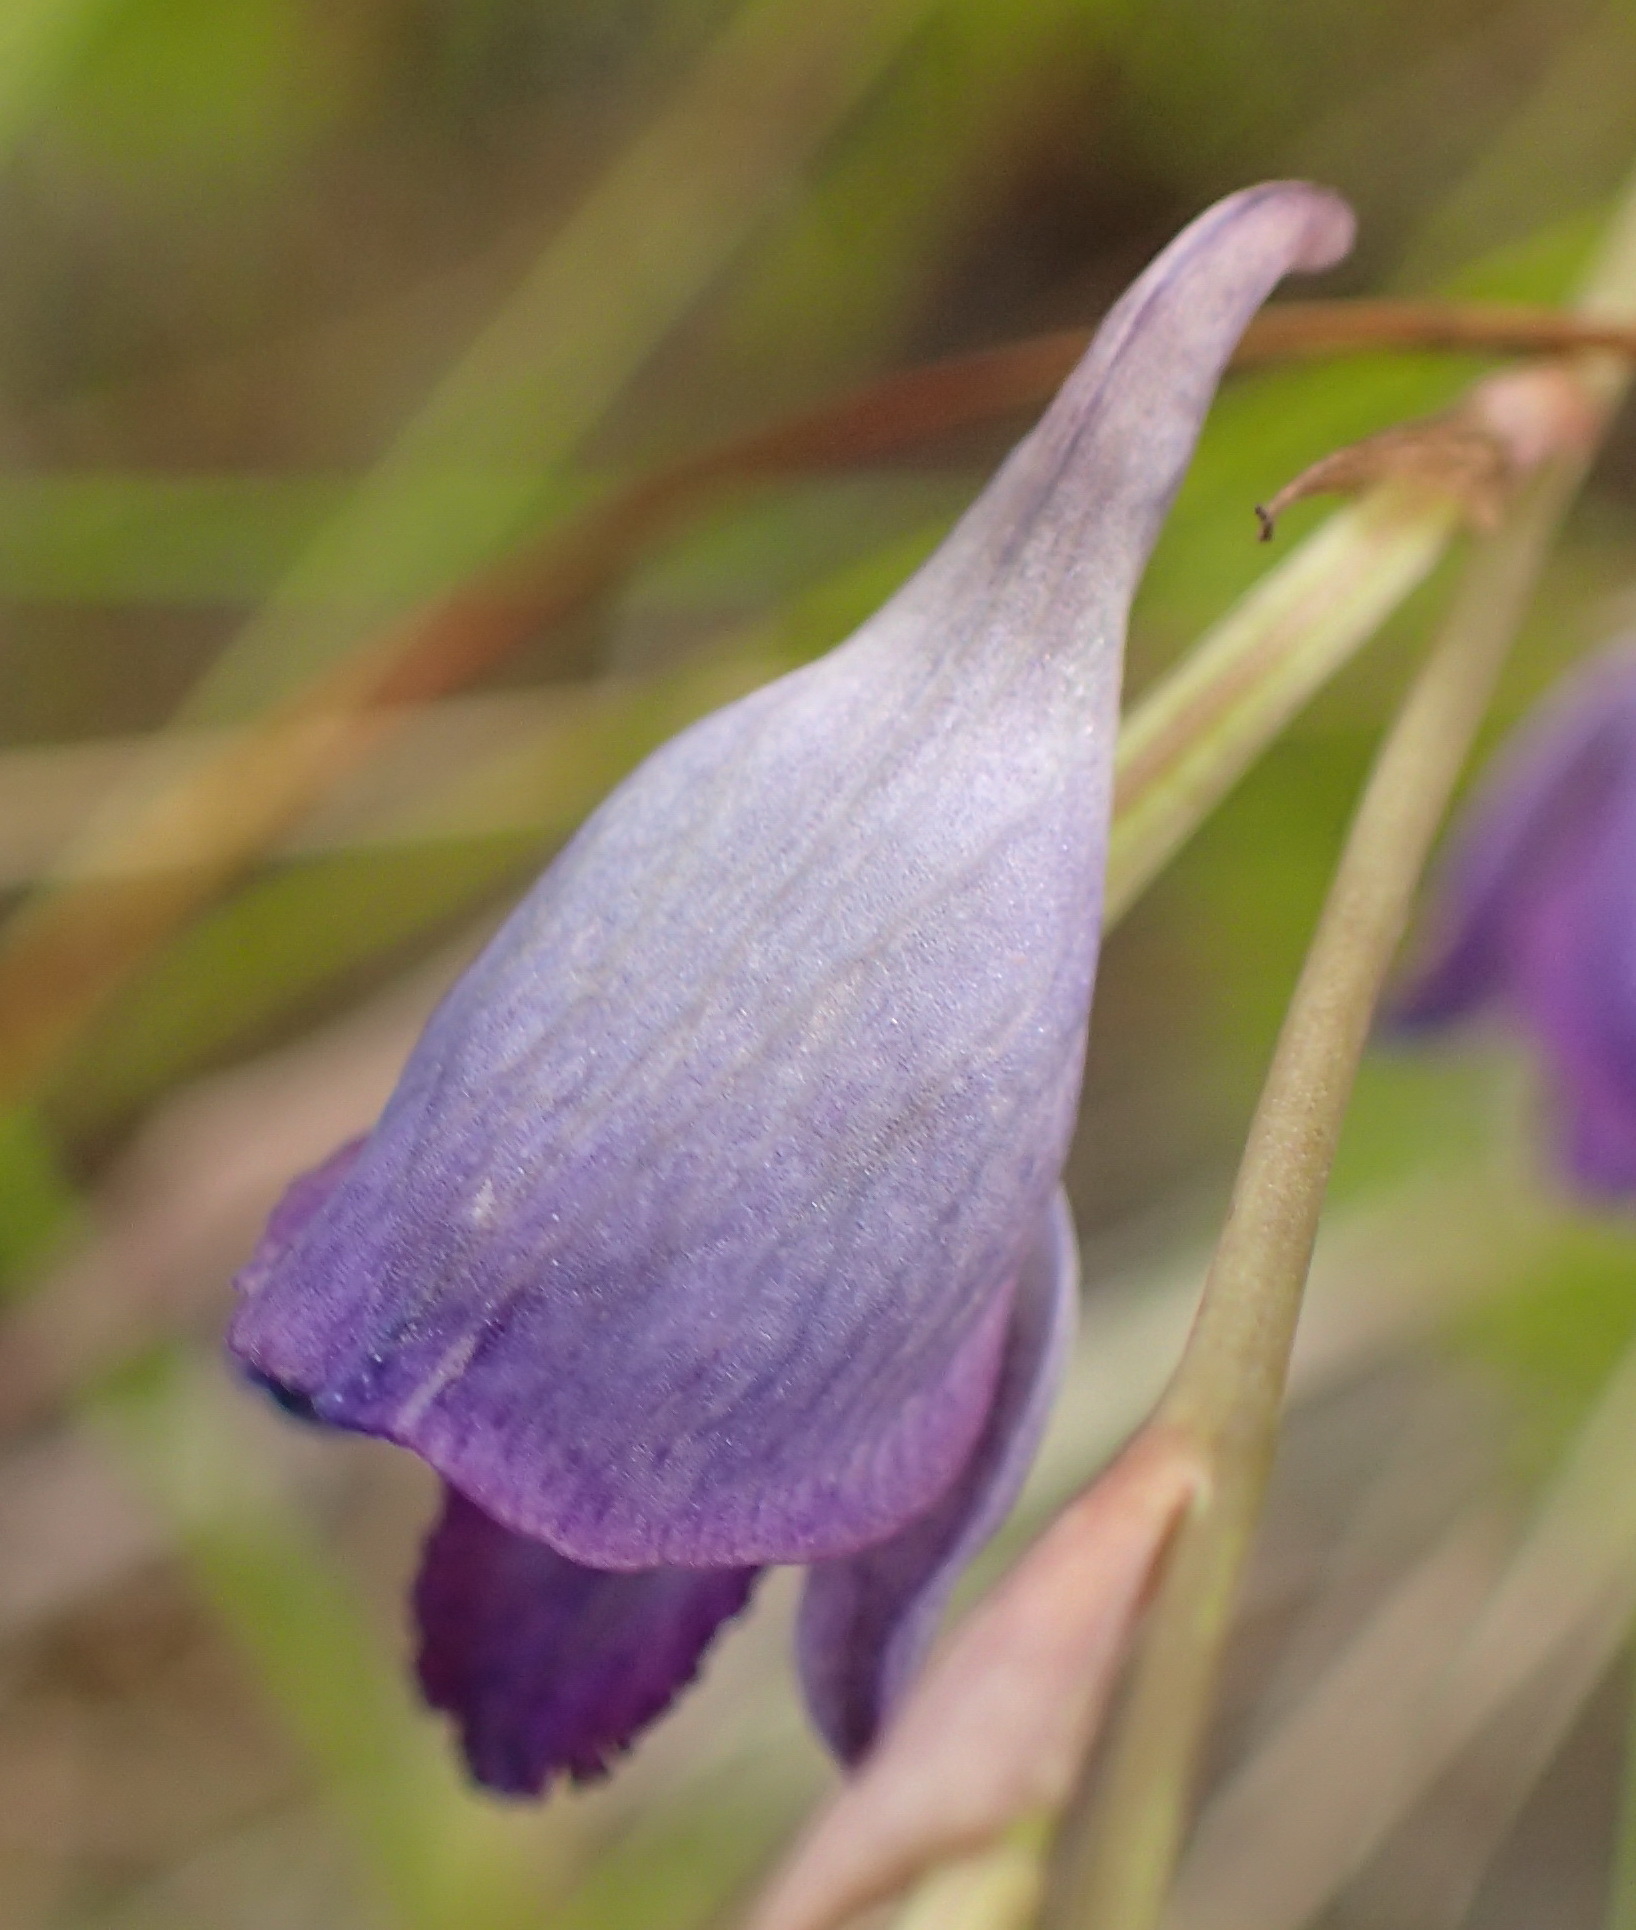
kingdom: Plantae
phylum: Tracheophyta
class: Liliopsida
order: Asparagales
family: Orchidaceae
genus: Disa
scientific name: Disa hians
